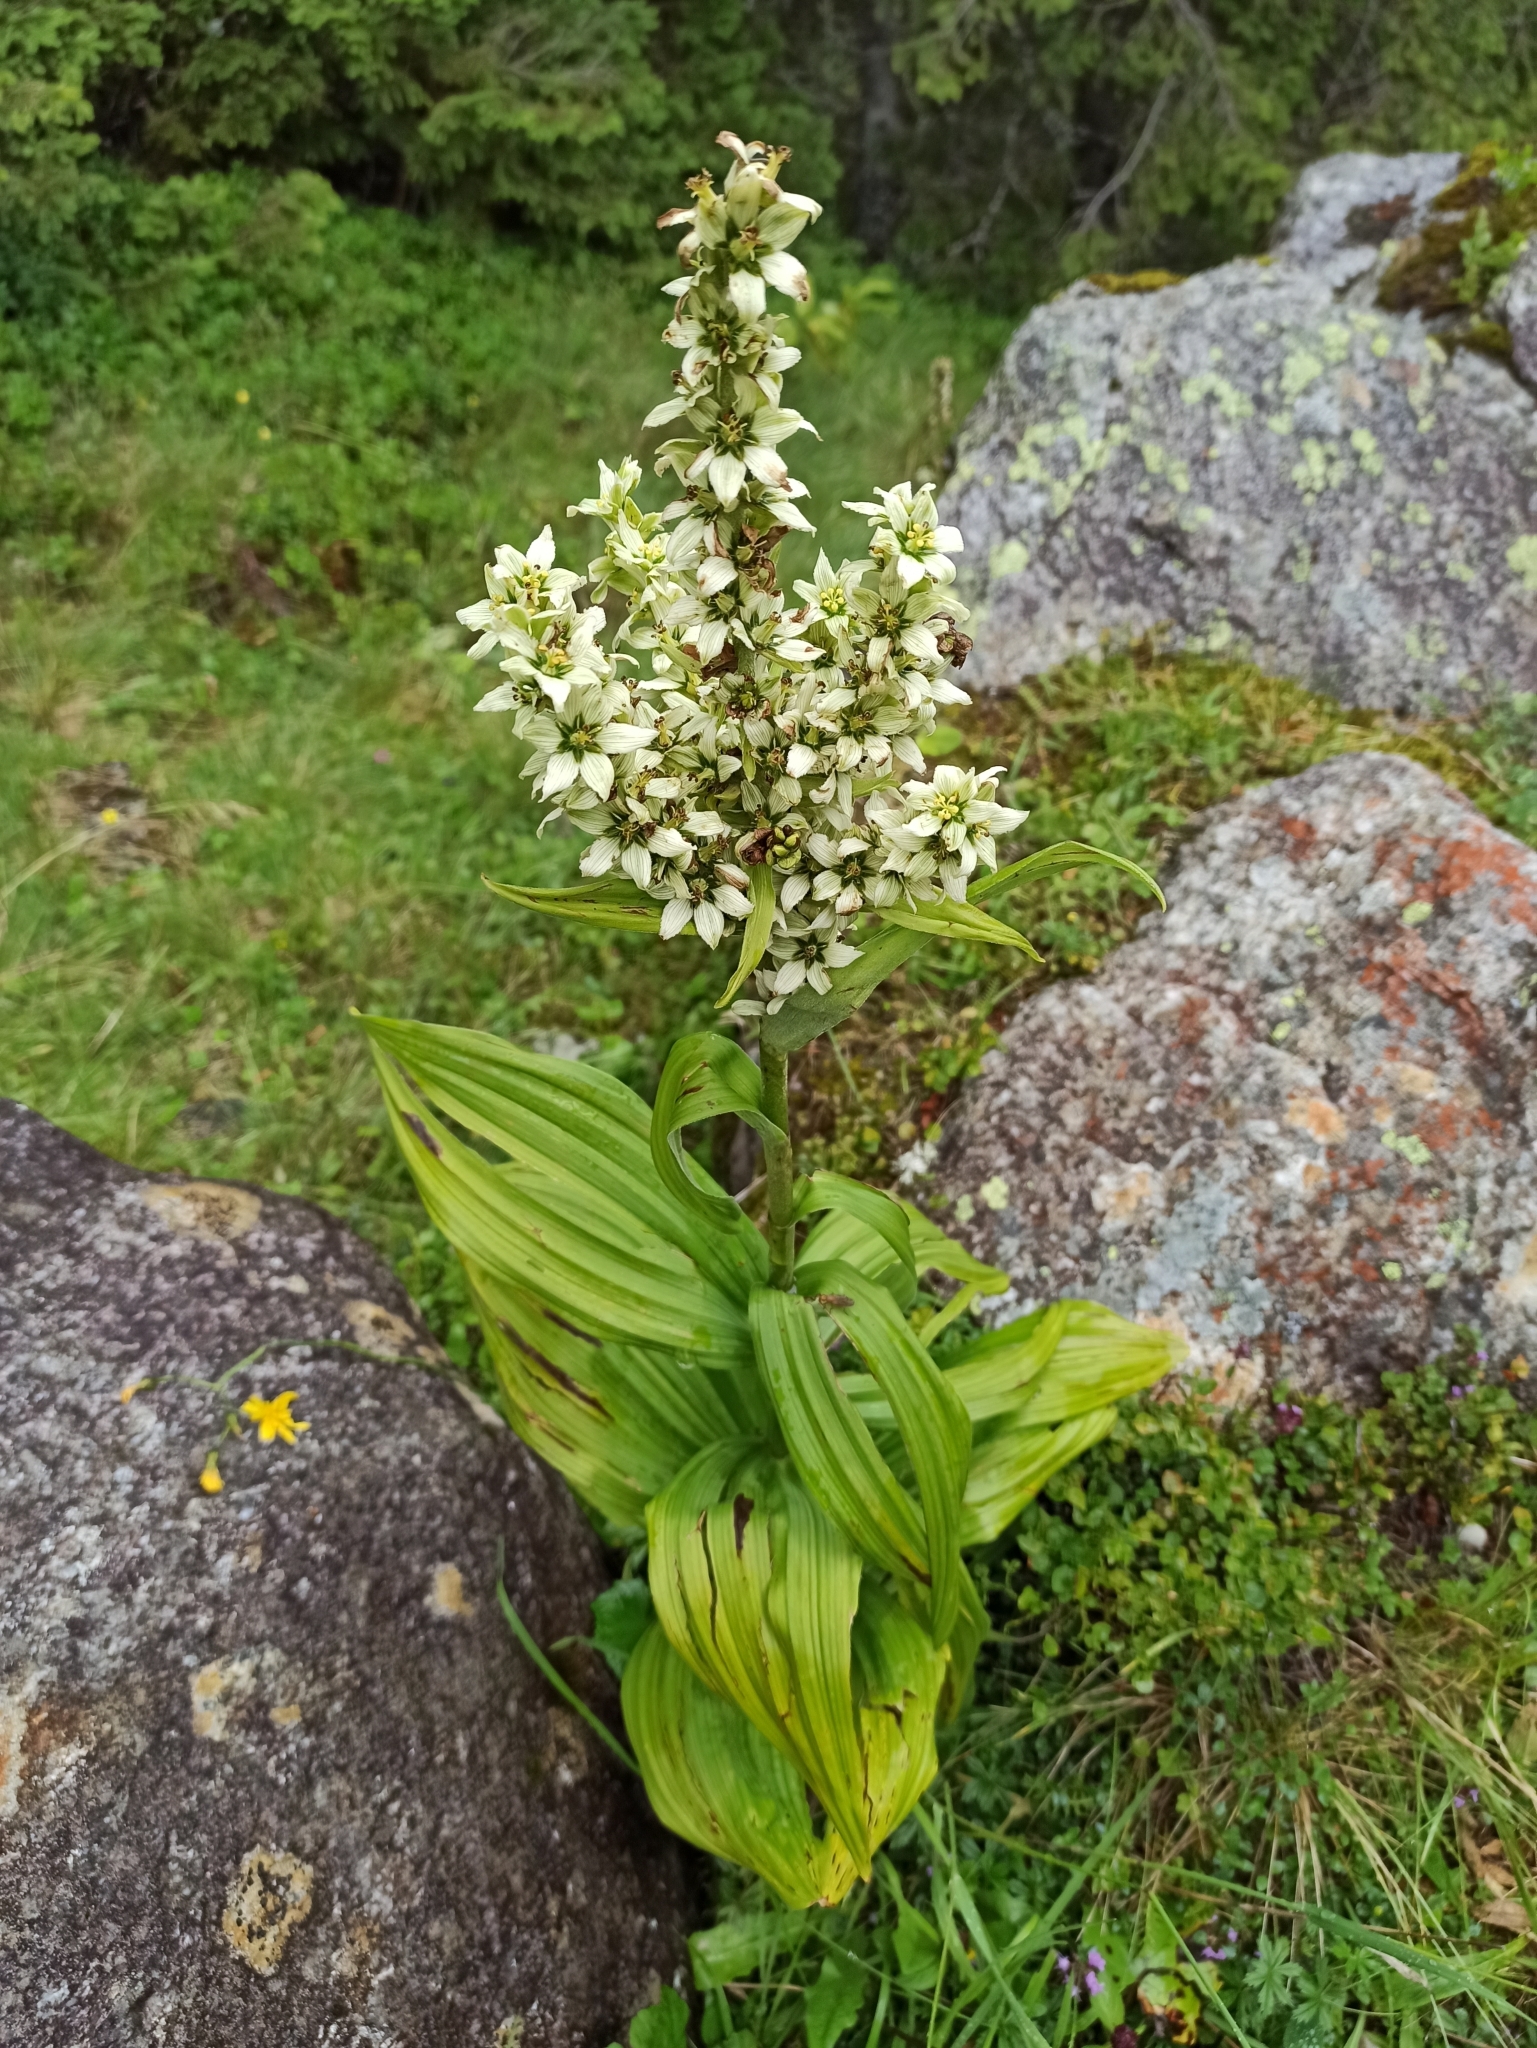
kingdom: Plantae
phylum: Tracheophyta
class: Liliopsida
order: Liliales
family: Melanthiaceae
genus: Veratrum
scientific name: Veratrum album
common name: White veratrum
